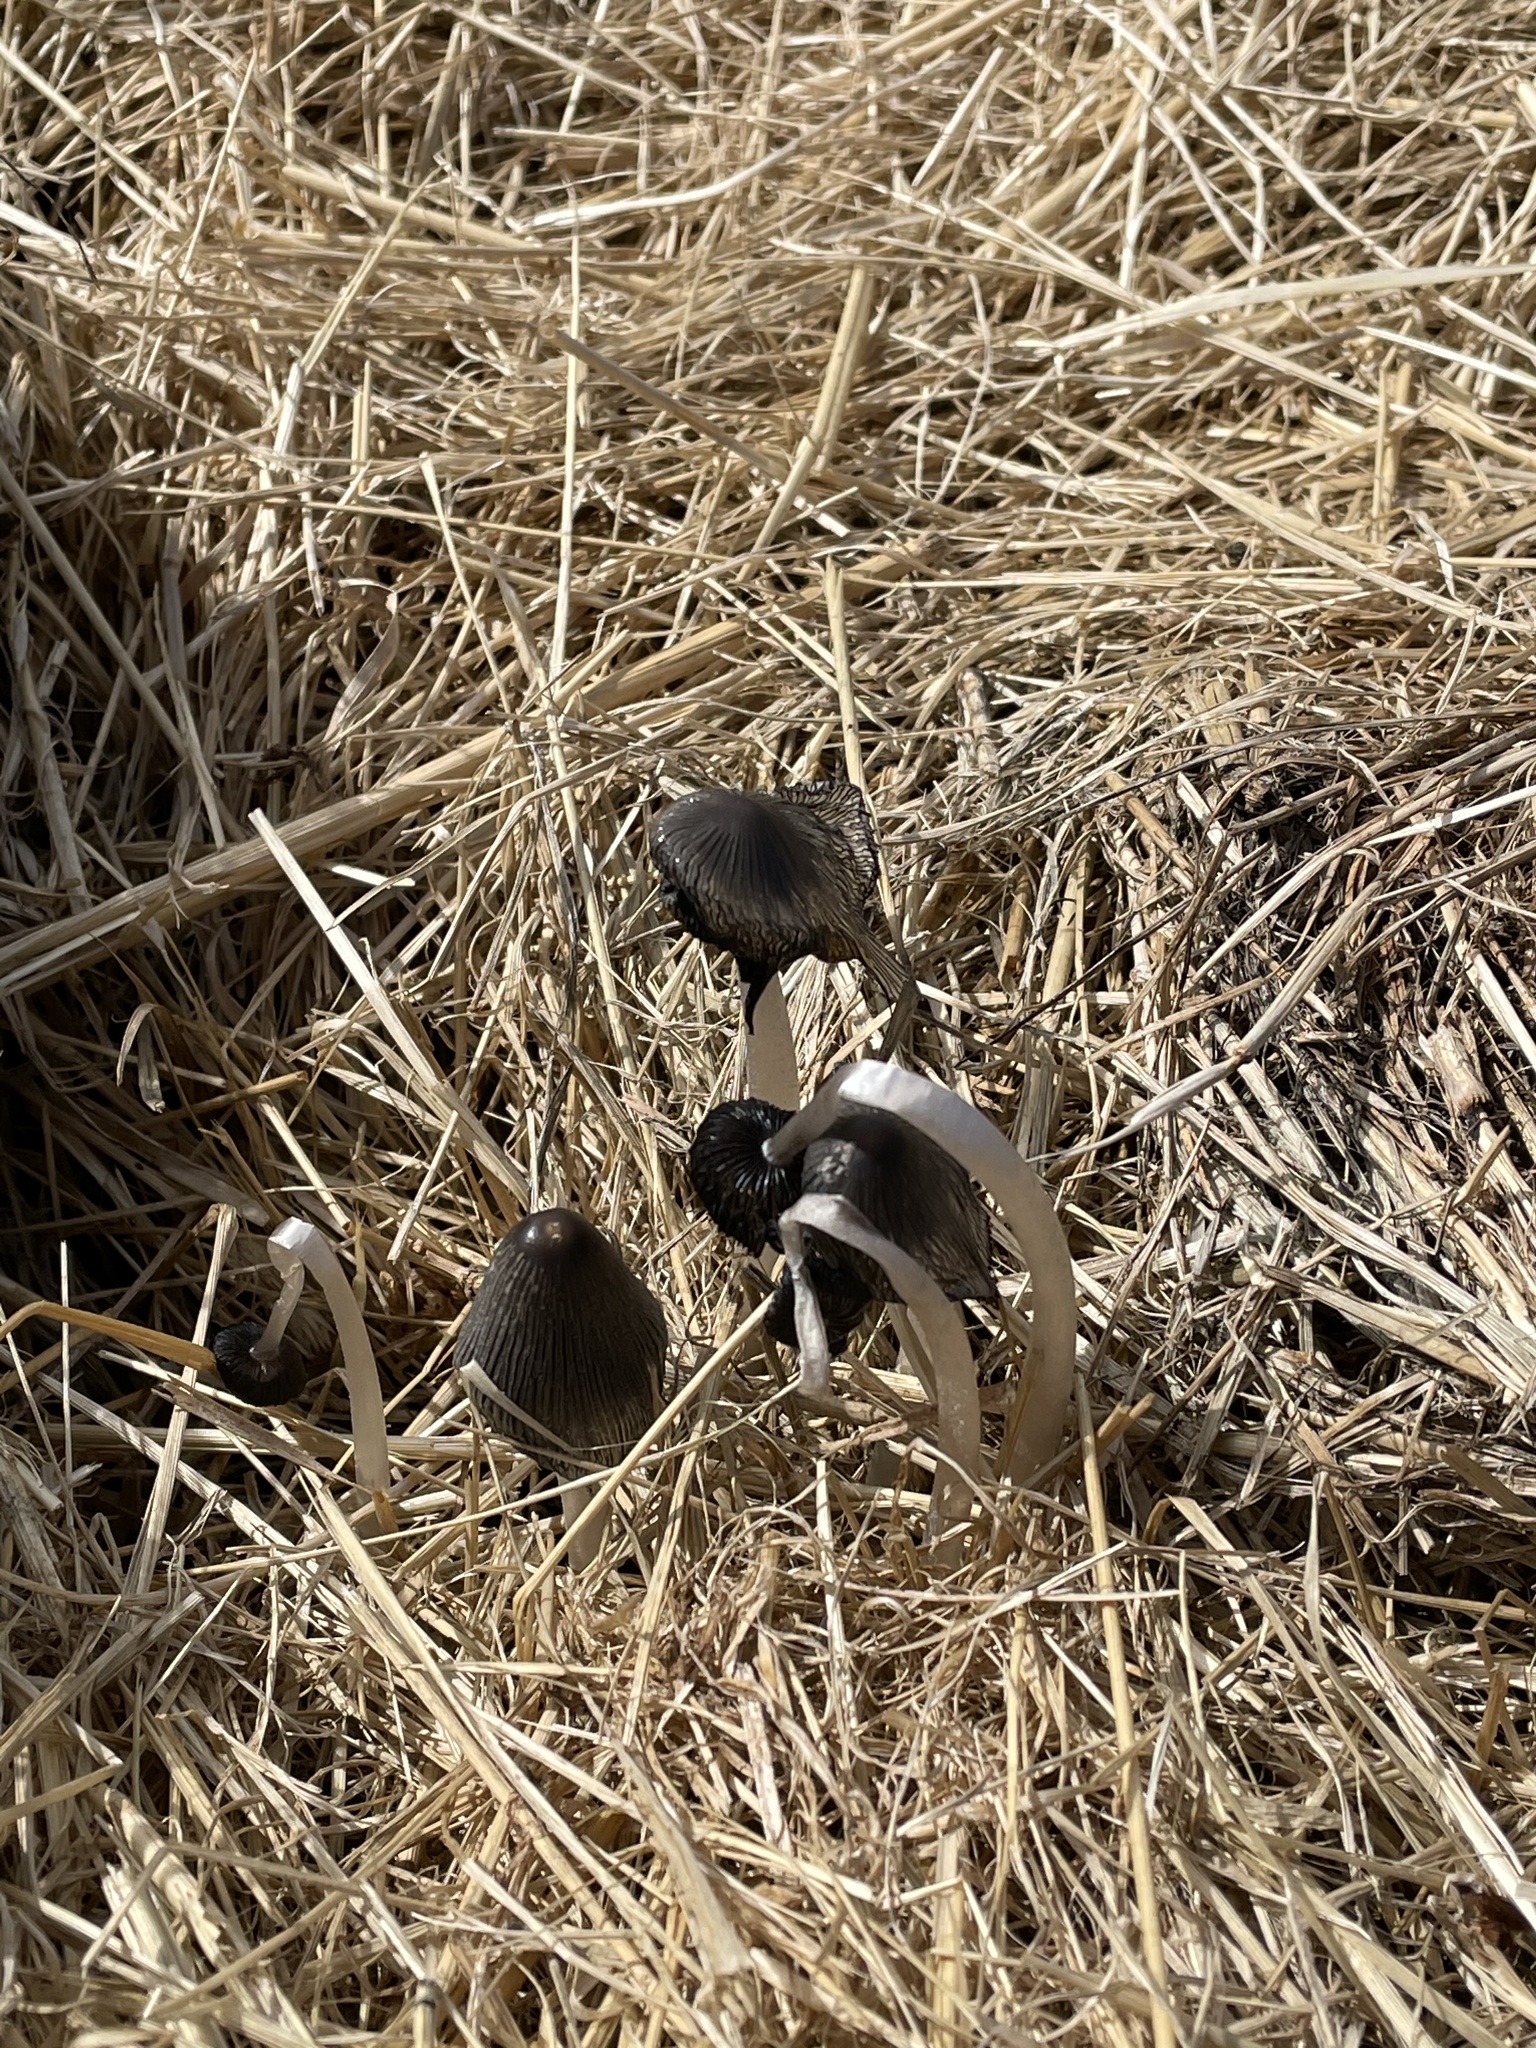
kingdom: Fungi
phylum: Basidiomycota
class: Agaricomycetes
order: Agaricales
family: Psathyrellaceae
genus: Coprinopsis
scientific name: Coprinopsis cinerea
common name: Grey inkcap
